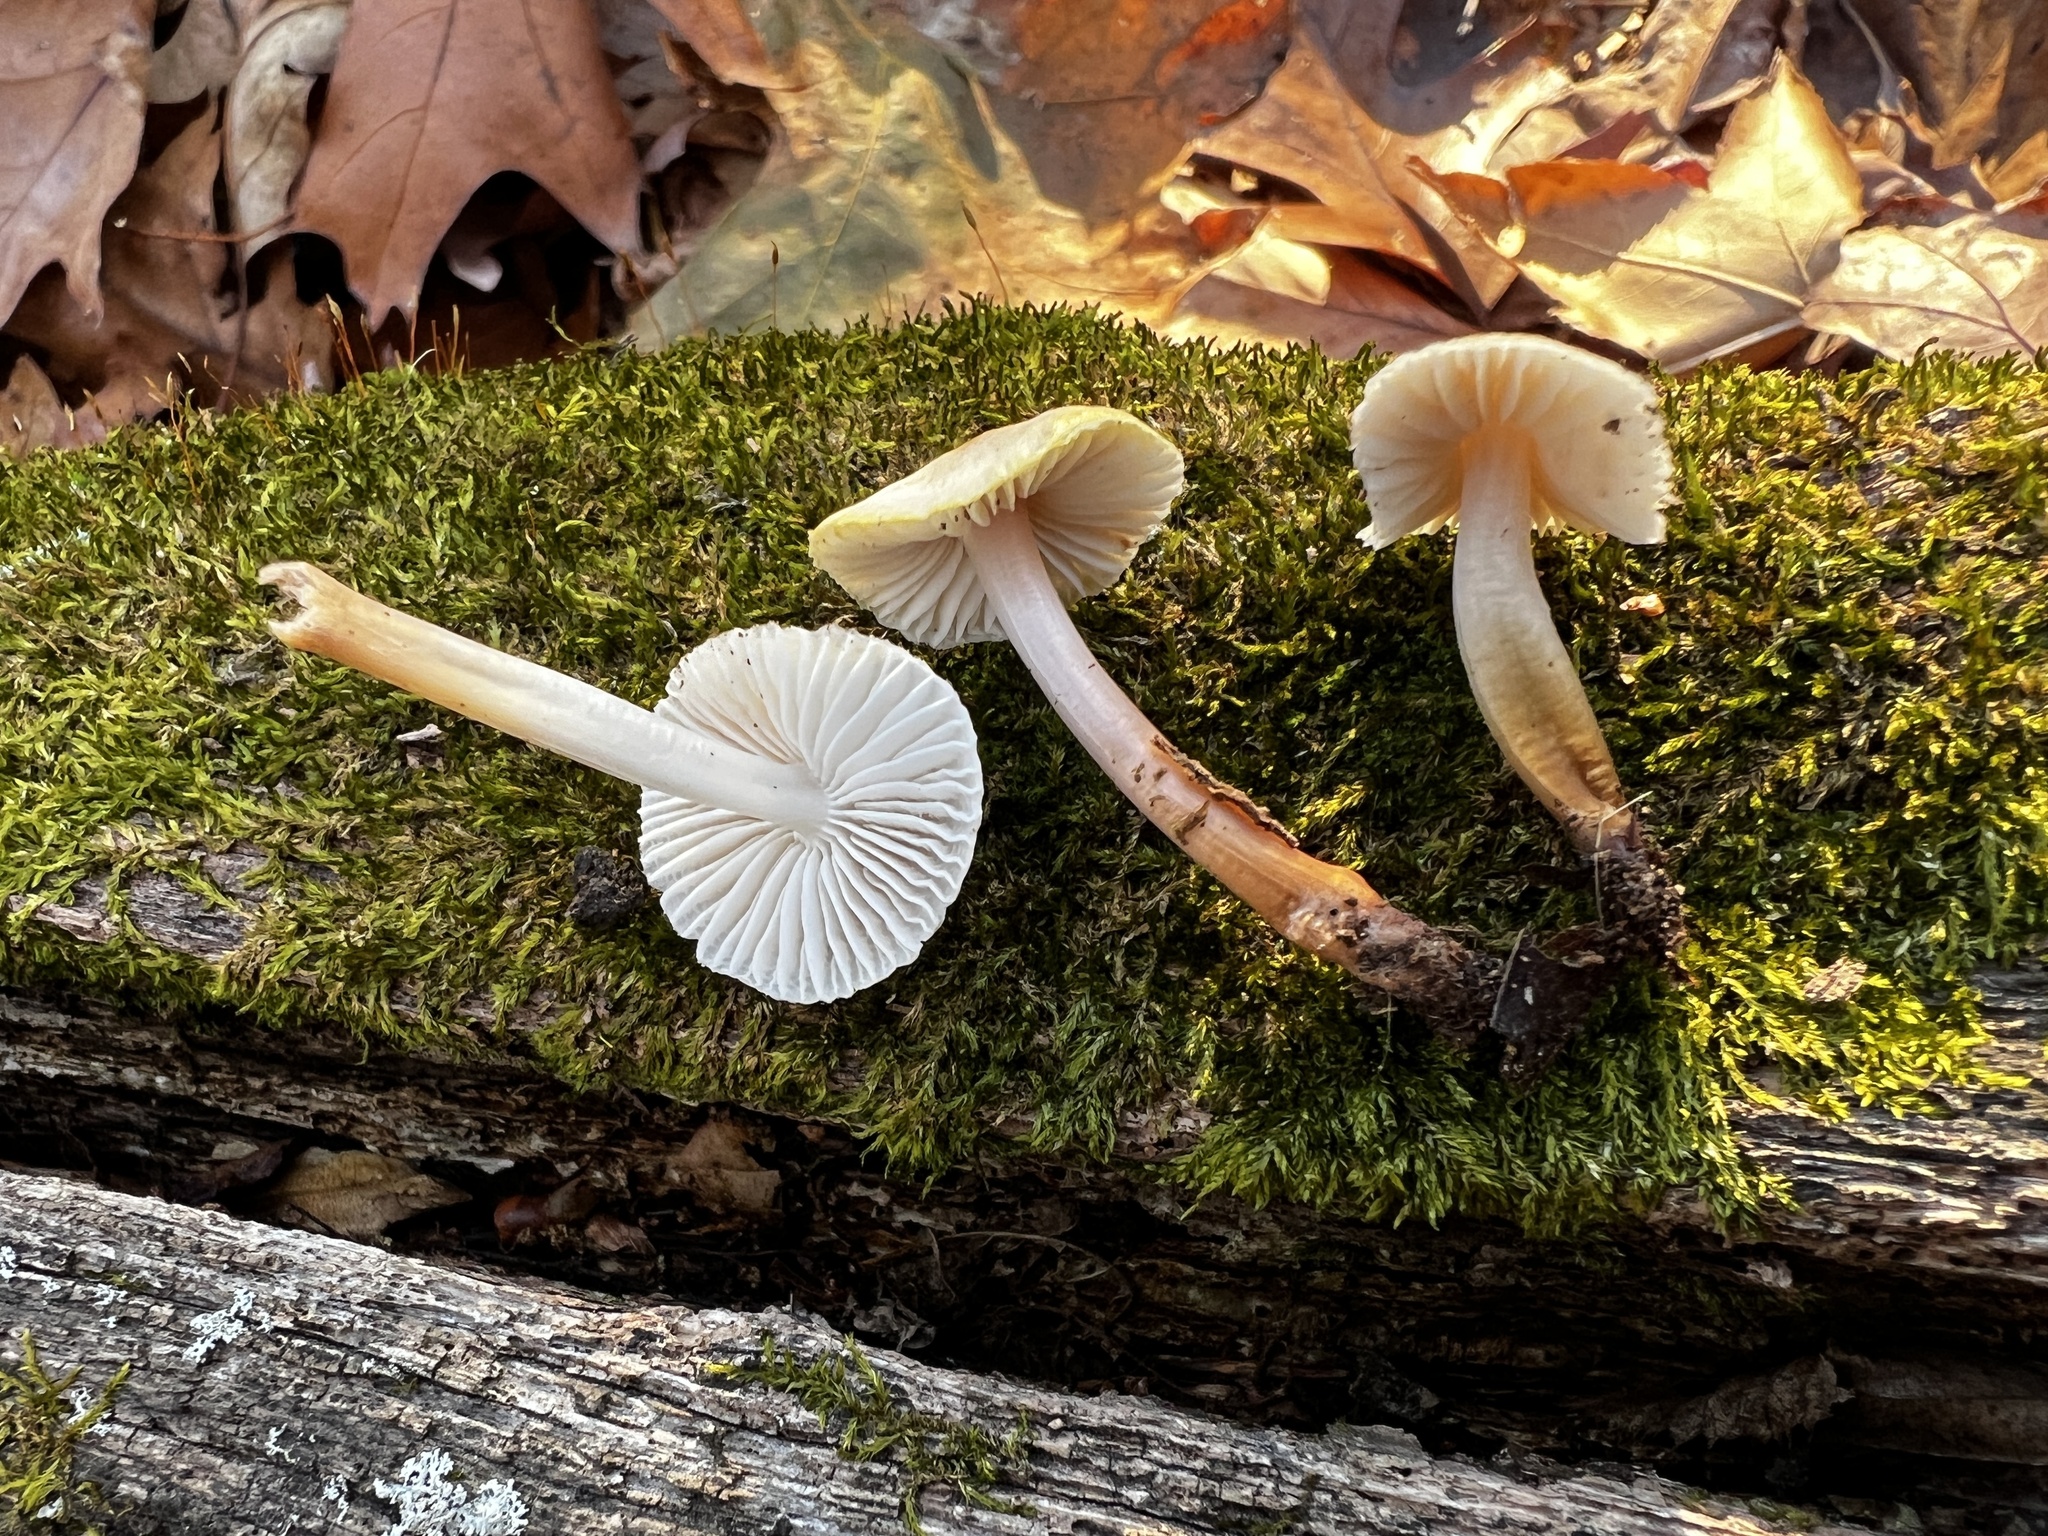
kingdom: Fungi
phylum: Basidiomycota
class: Agaricomycetes
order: Agaricales
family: Mycenaceae
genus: Mycena
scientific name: Mycena inclinata
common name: Clustered bonnet
